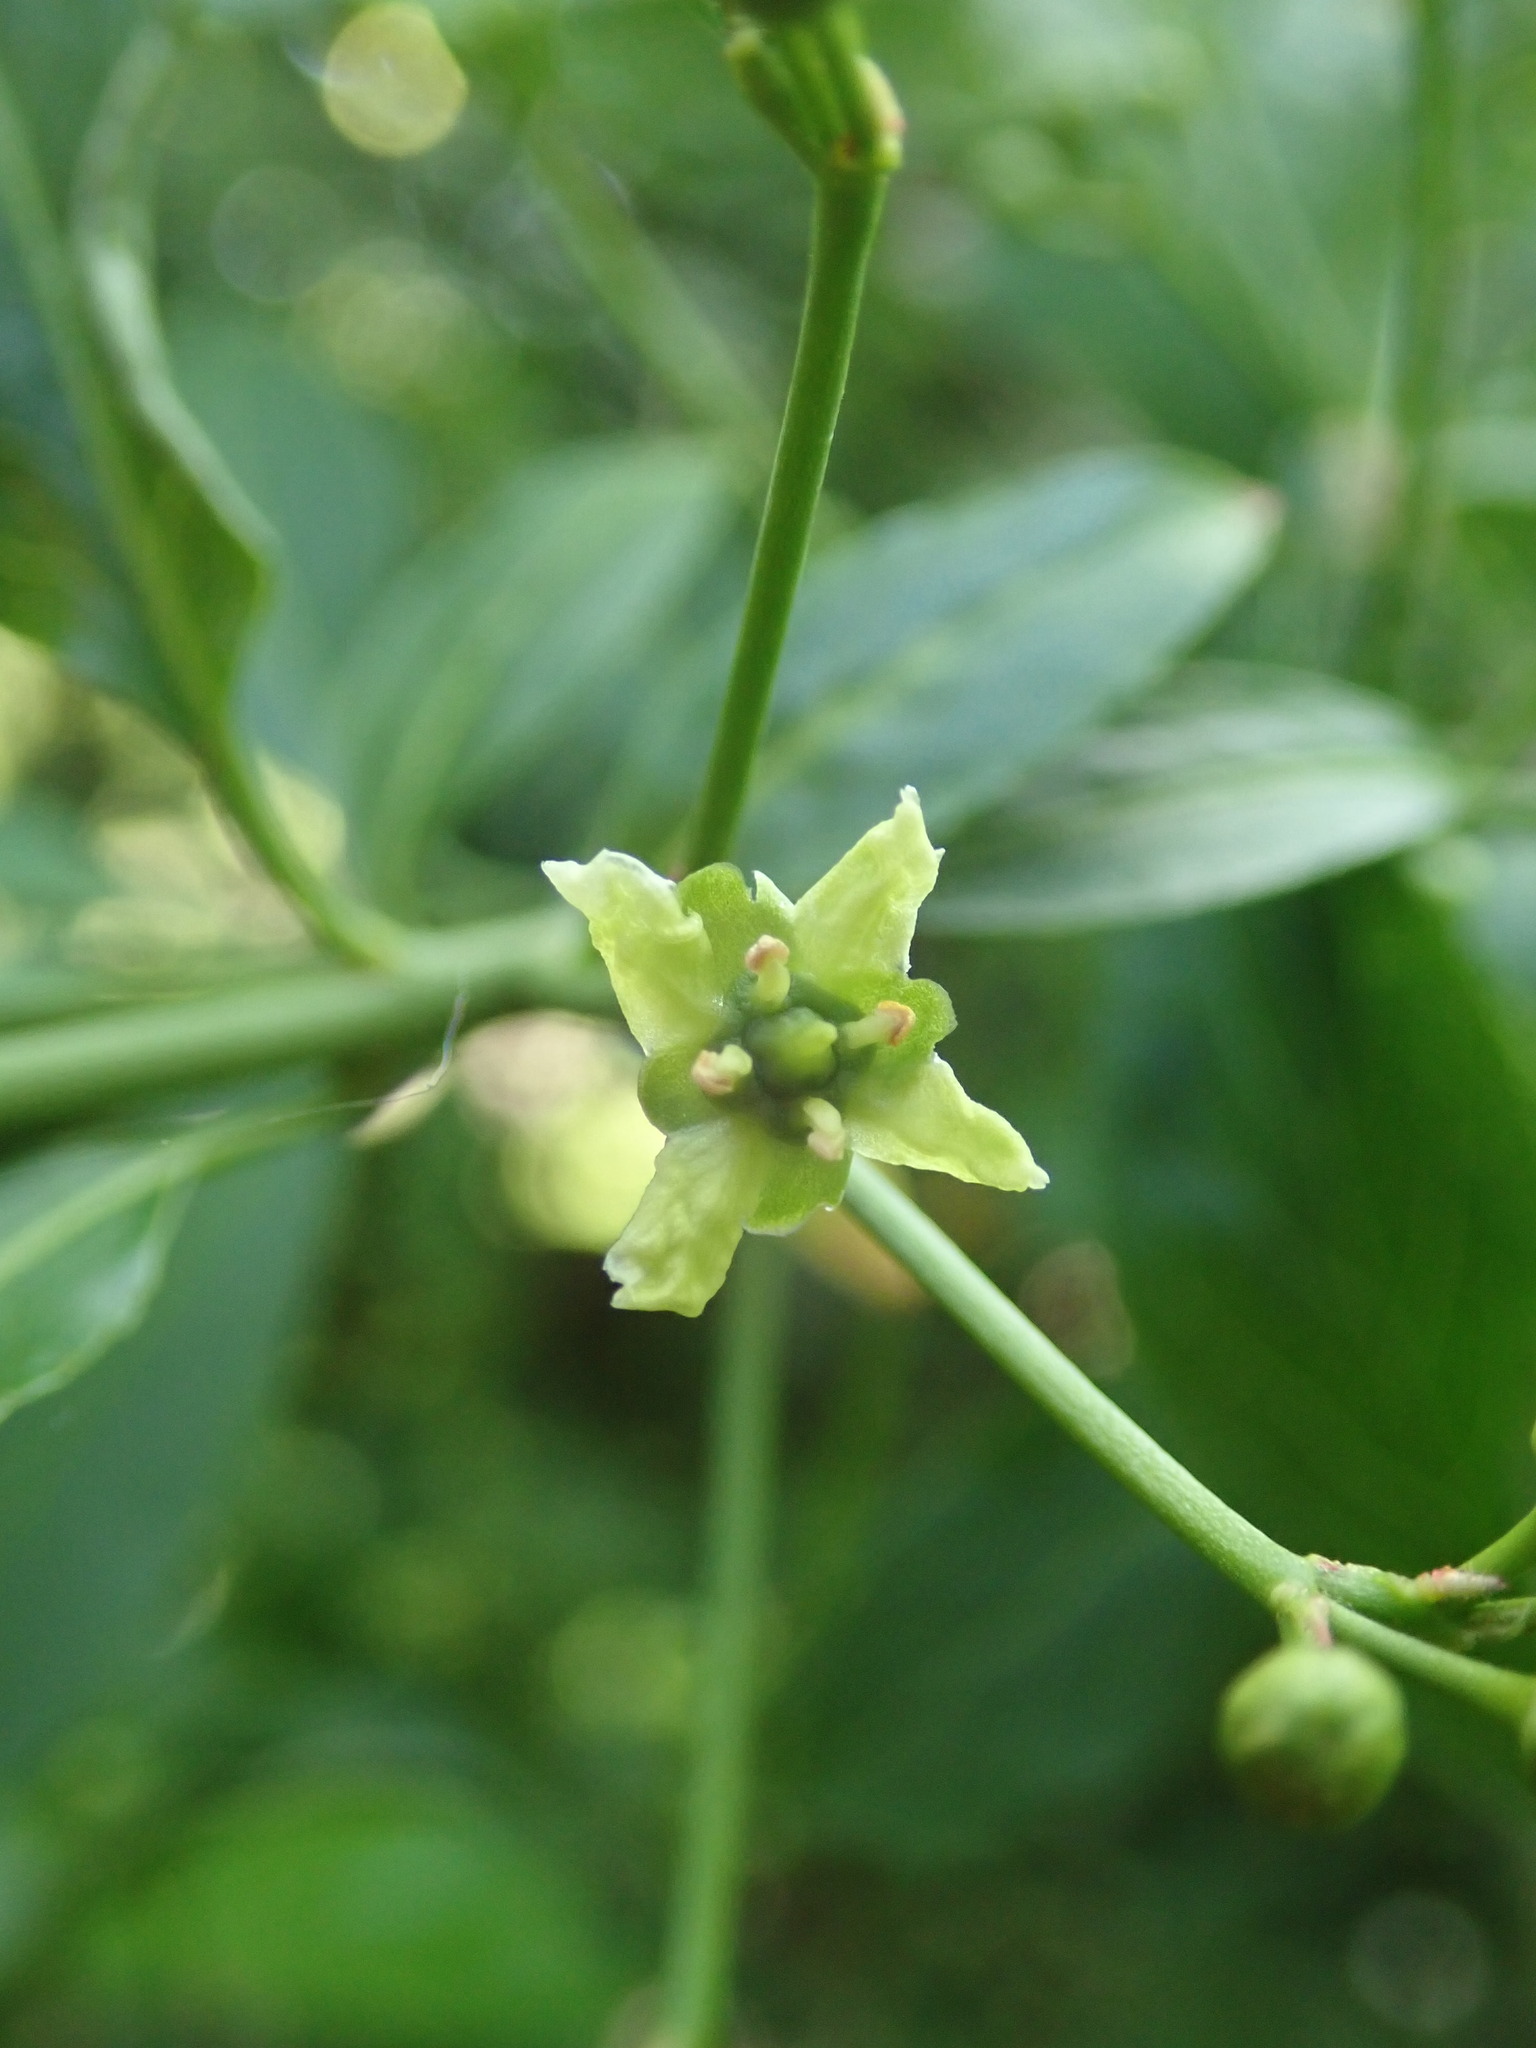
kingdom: Plantae
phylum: Tracheophyta
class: Magnoliopsida
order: Celastrales
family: Celastraceae
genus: Euonymus
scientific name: Euonymus europaeus
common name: Spindle
